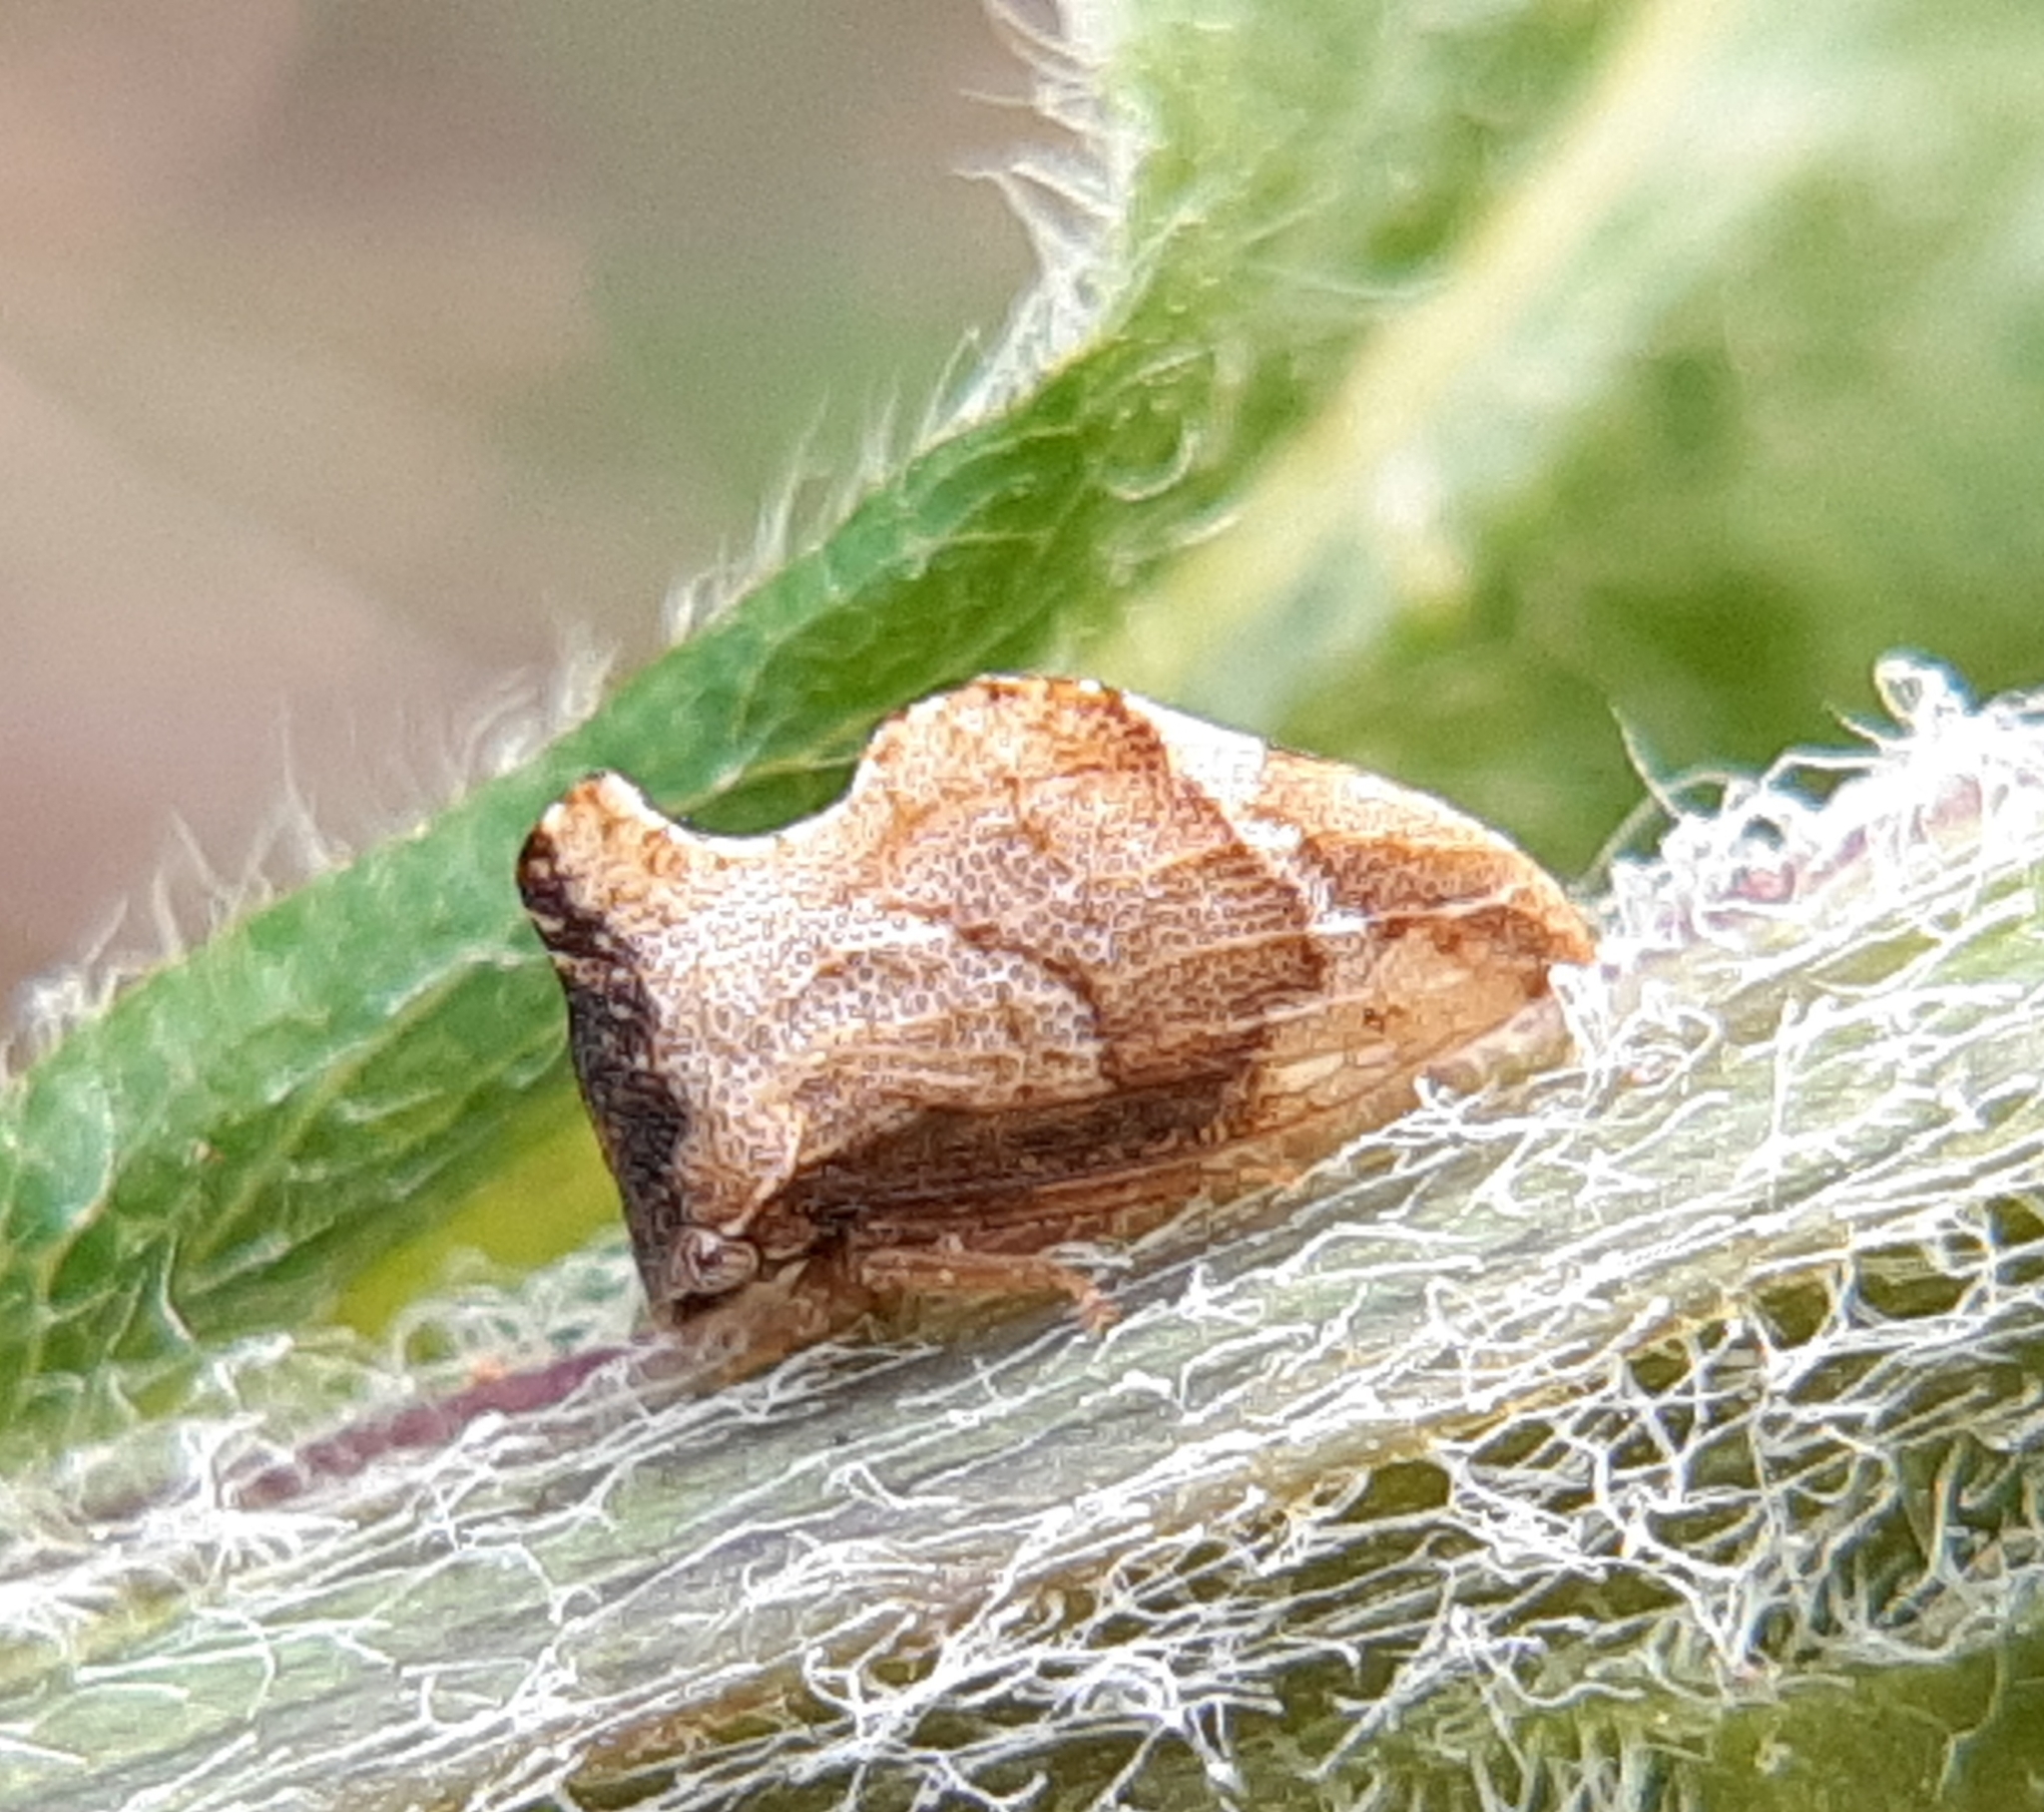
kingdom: Animalia
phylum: Arthropoda
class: Insecta
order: Hemiptera
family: Membracidae
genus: Entylia
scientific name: Entylia carinata
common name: Keeled treehopper
